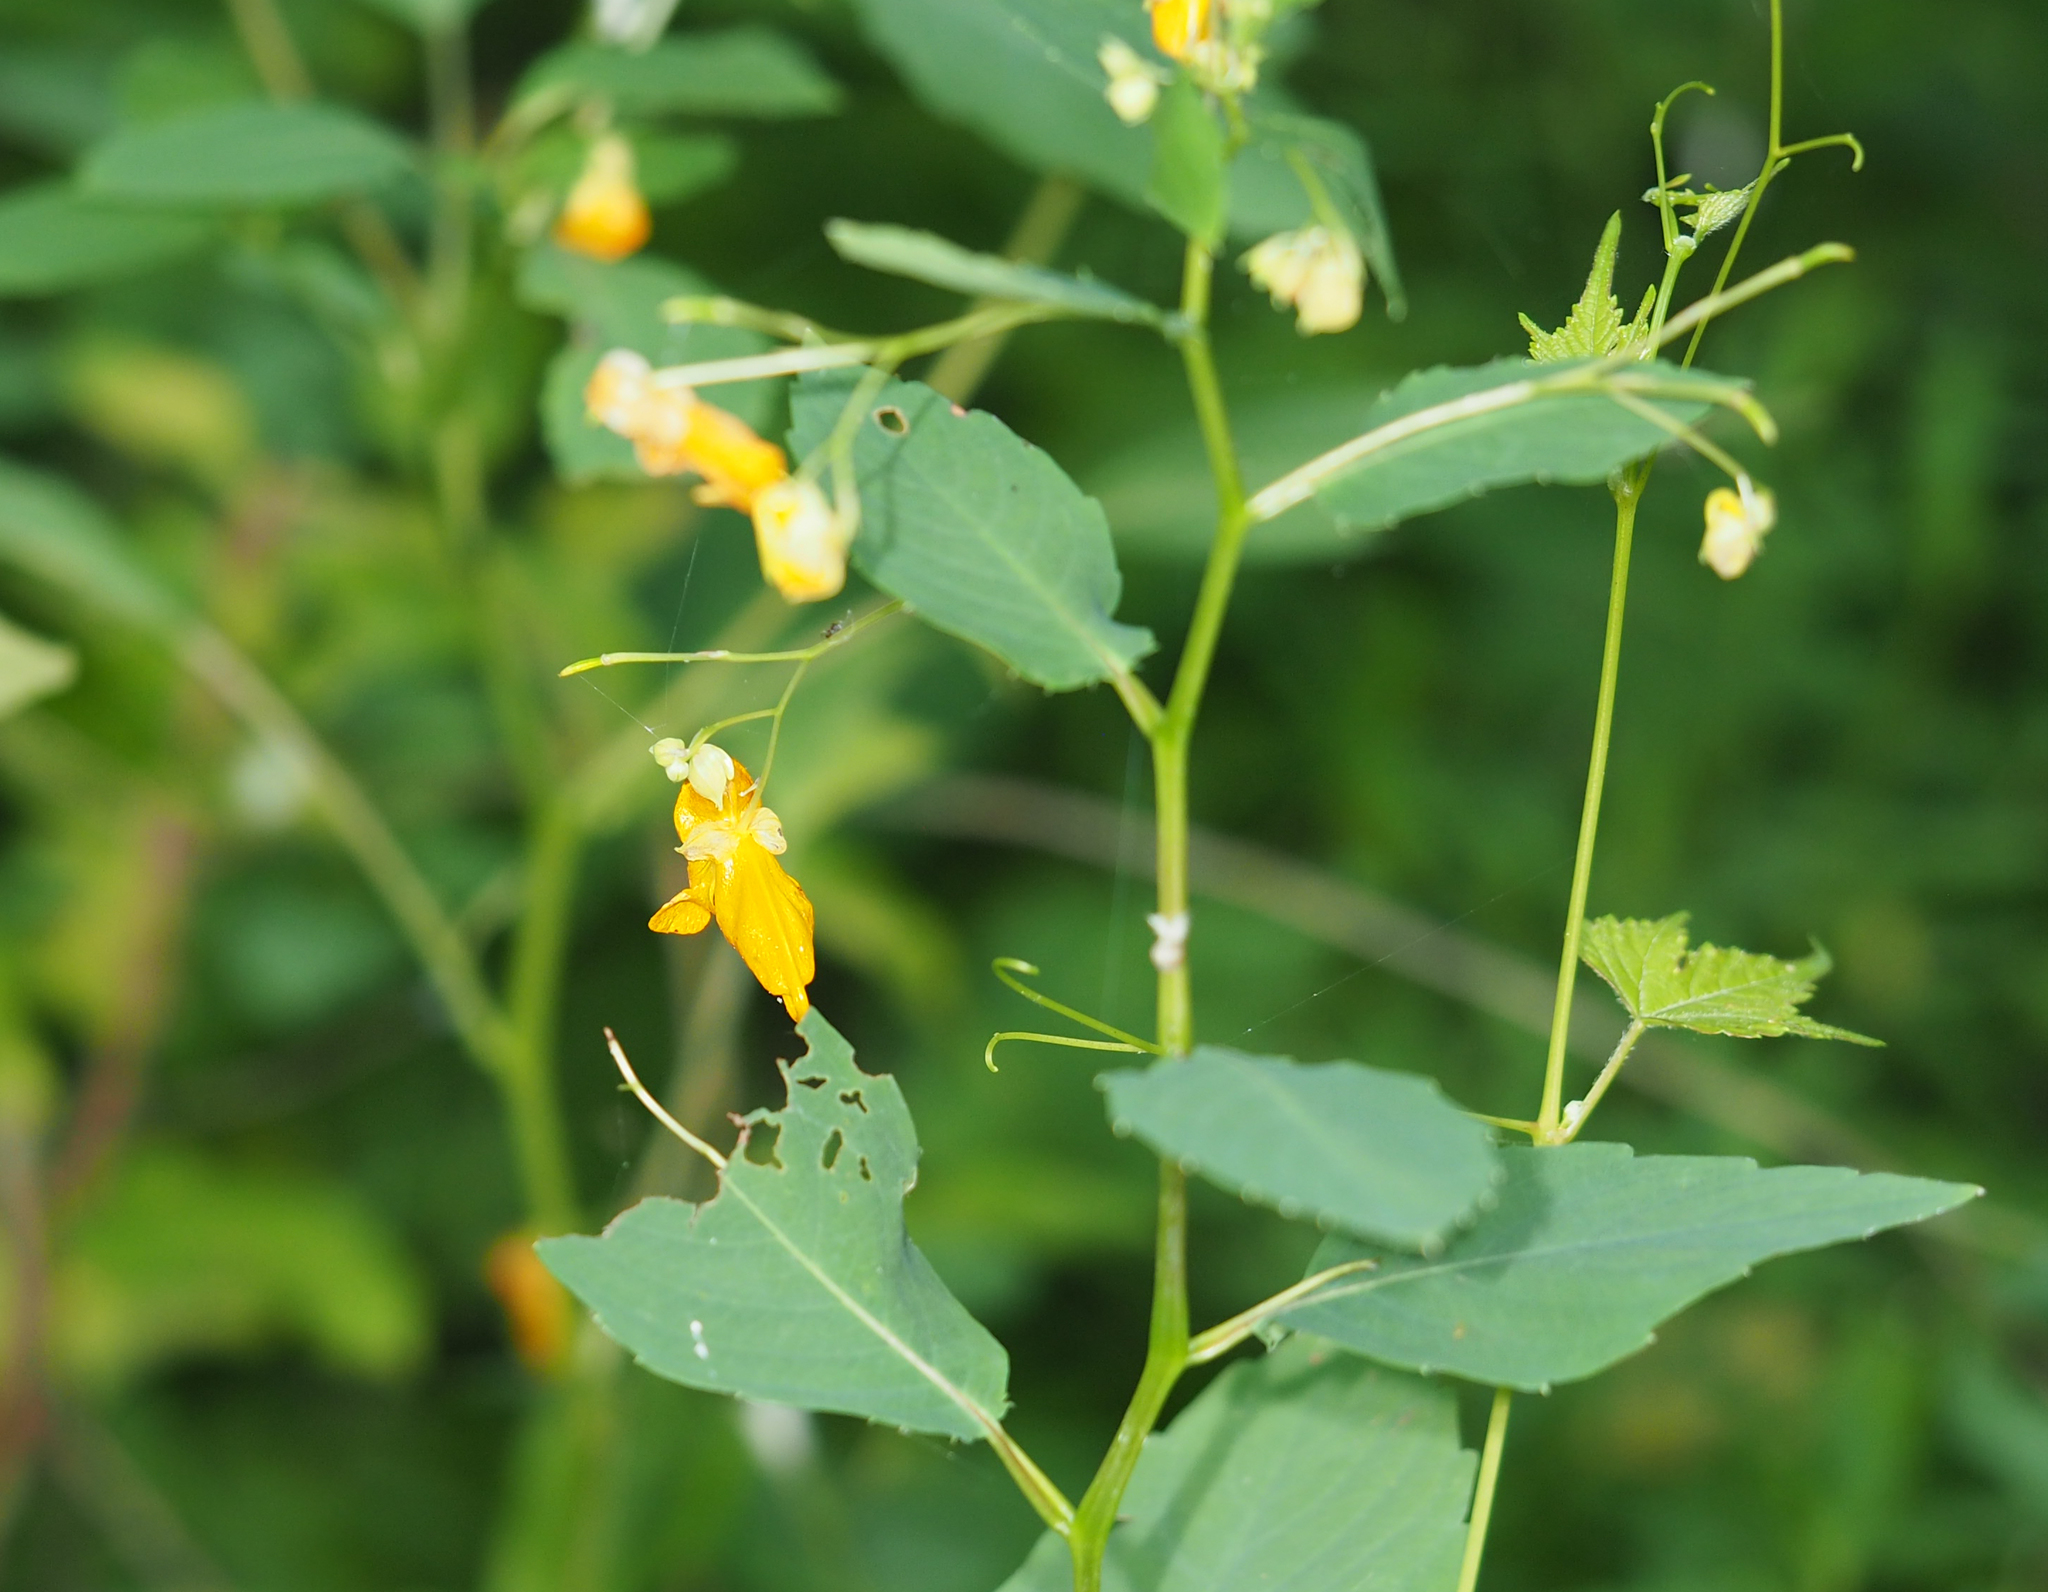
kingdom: Plantae
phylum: Tracheophyta
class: Magnoliopsida
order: Ericales
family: Balsaminaceae
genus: Impatiens
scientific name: Impatiens capensis
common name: Orange balsam
